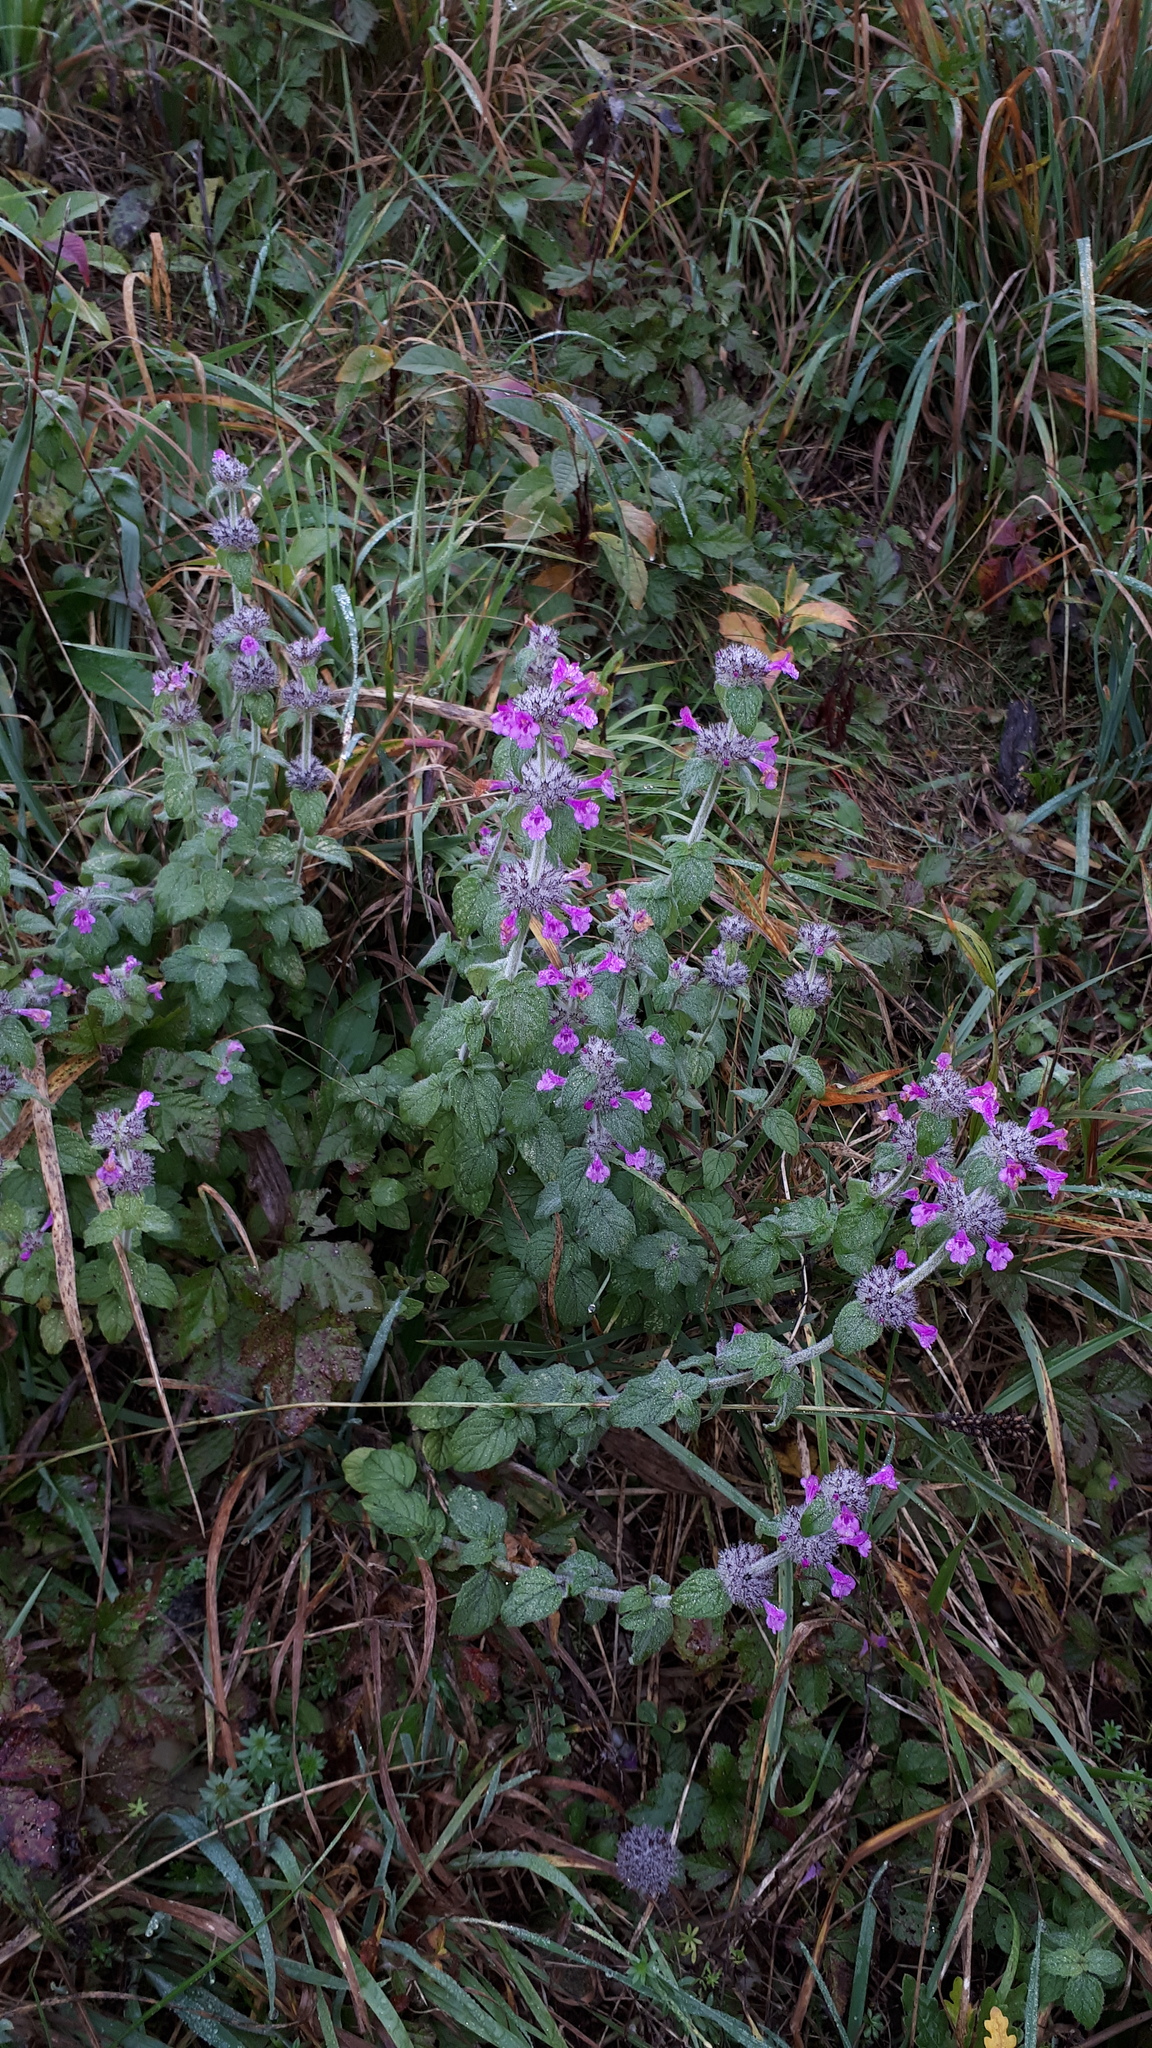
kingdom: Plantae
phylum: Tracheophyta
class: Magnoliopsida
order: Lamiales
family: Lamiaceae
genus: Clinopodium
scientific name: Clinopodium vulgare
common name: Wild basil
